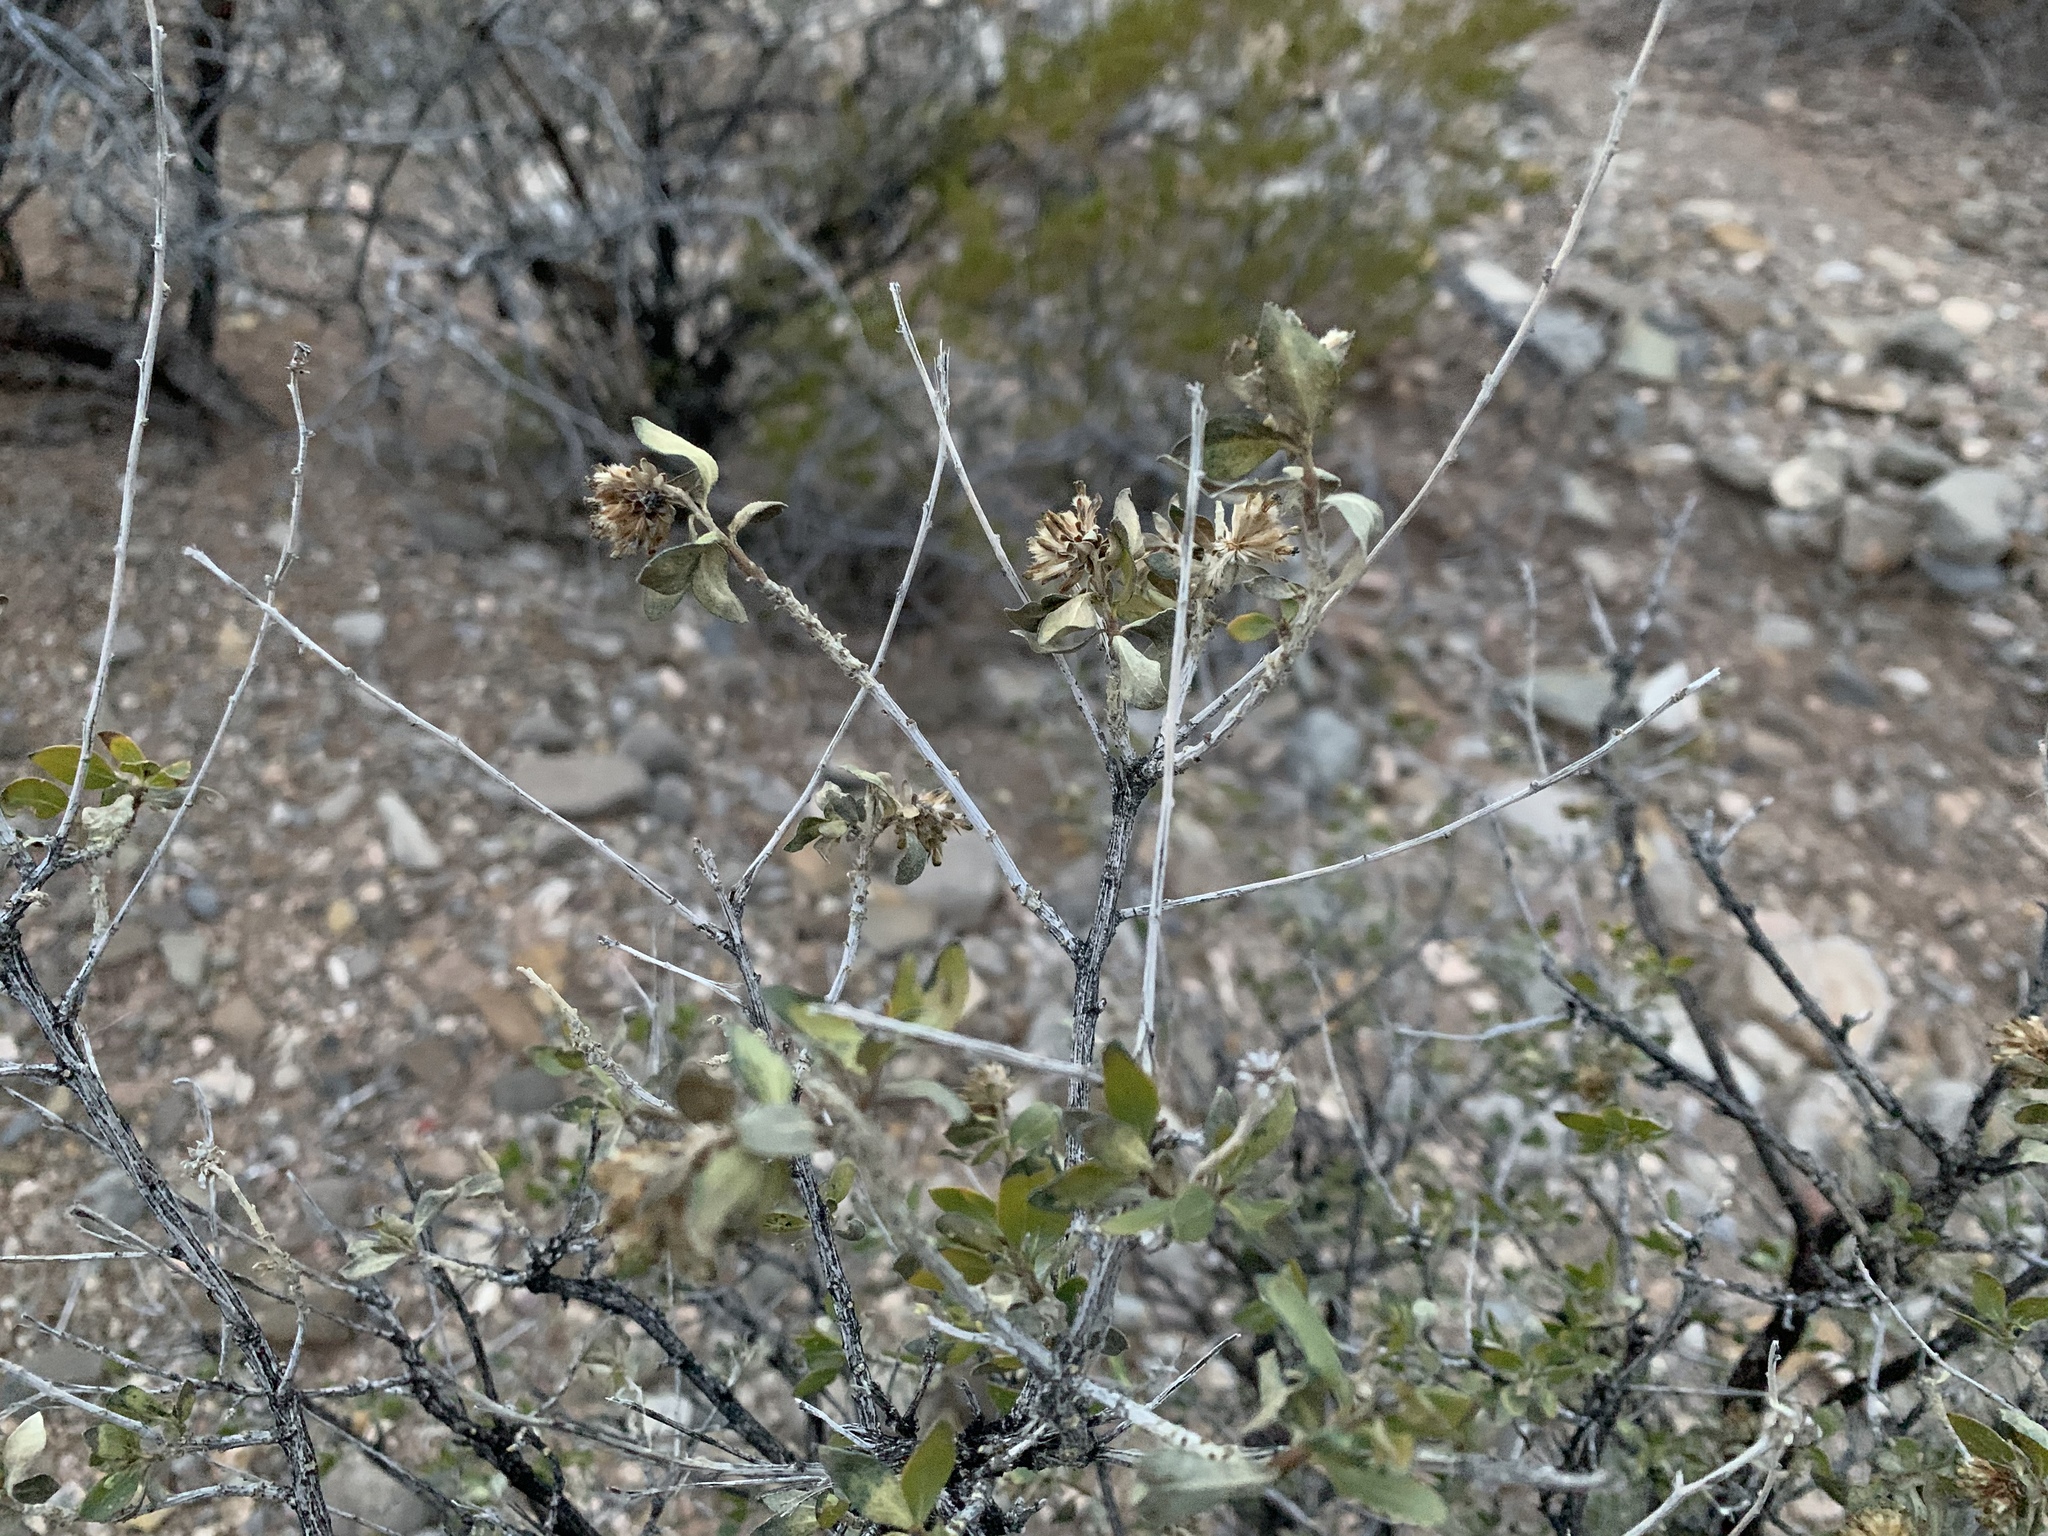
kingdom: Plantae
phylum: Tracheophyta
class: Magnoliopsida
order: Asterales
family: Asteraceae
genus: Flourensia
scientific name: Flourensia cernua
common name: Varnishbush
